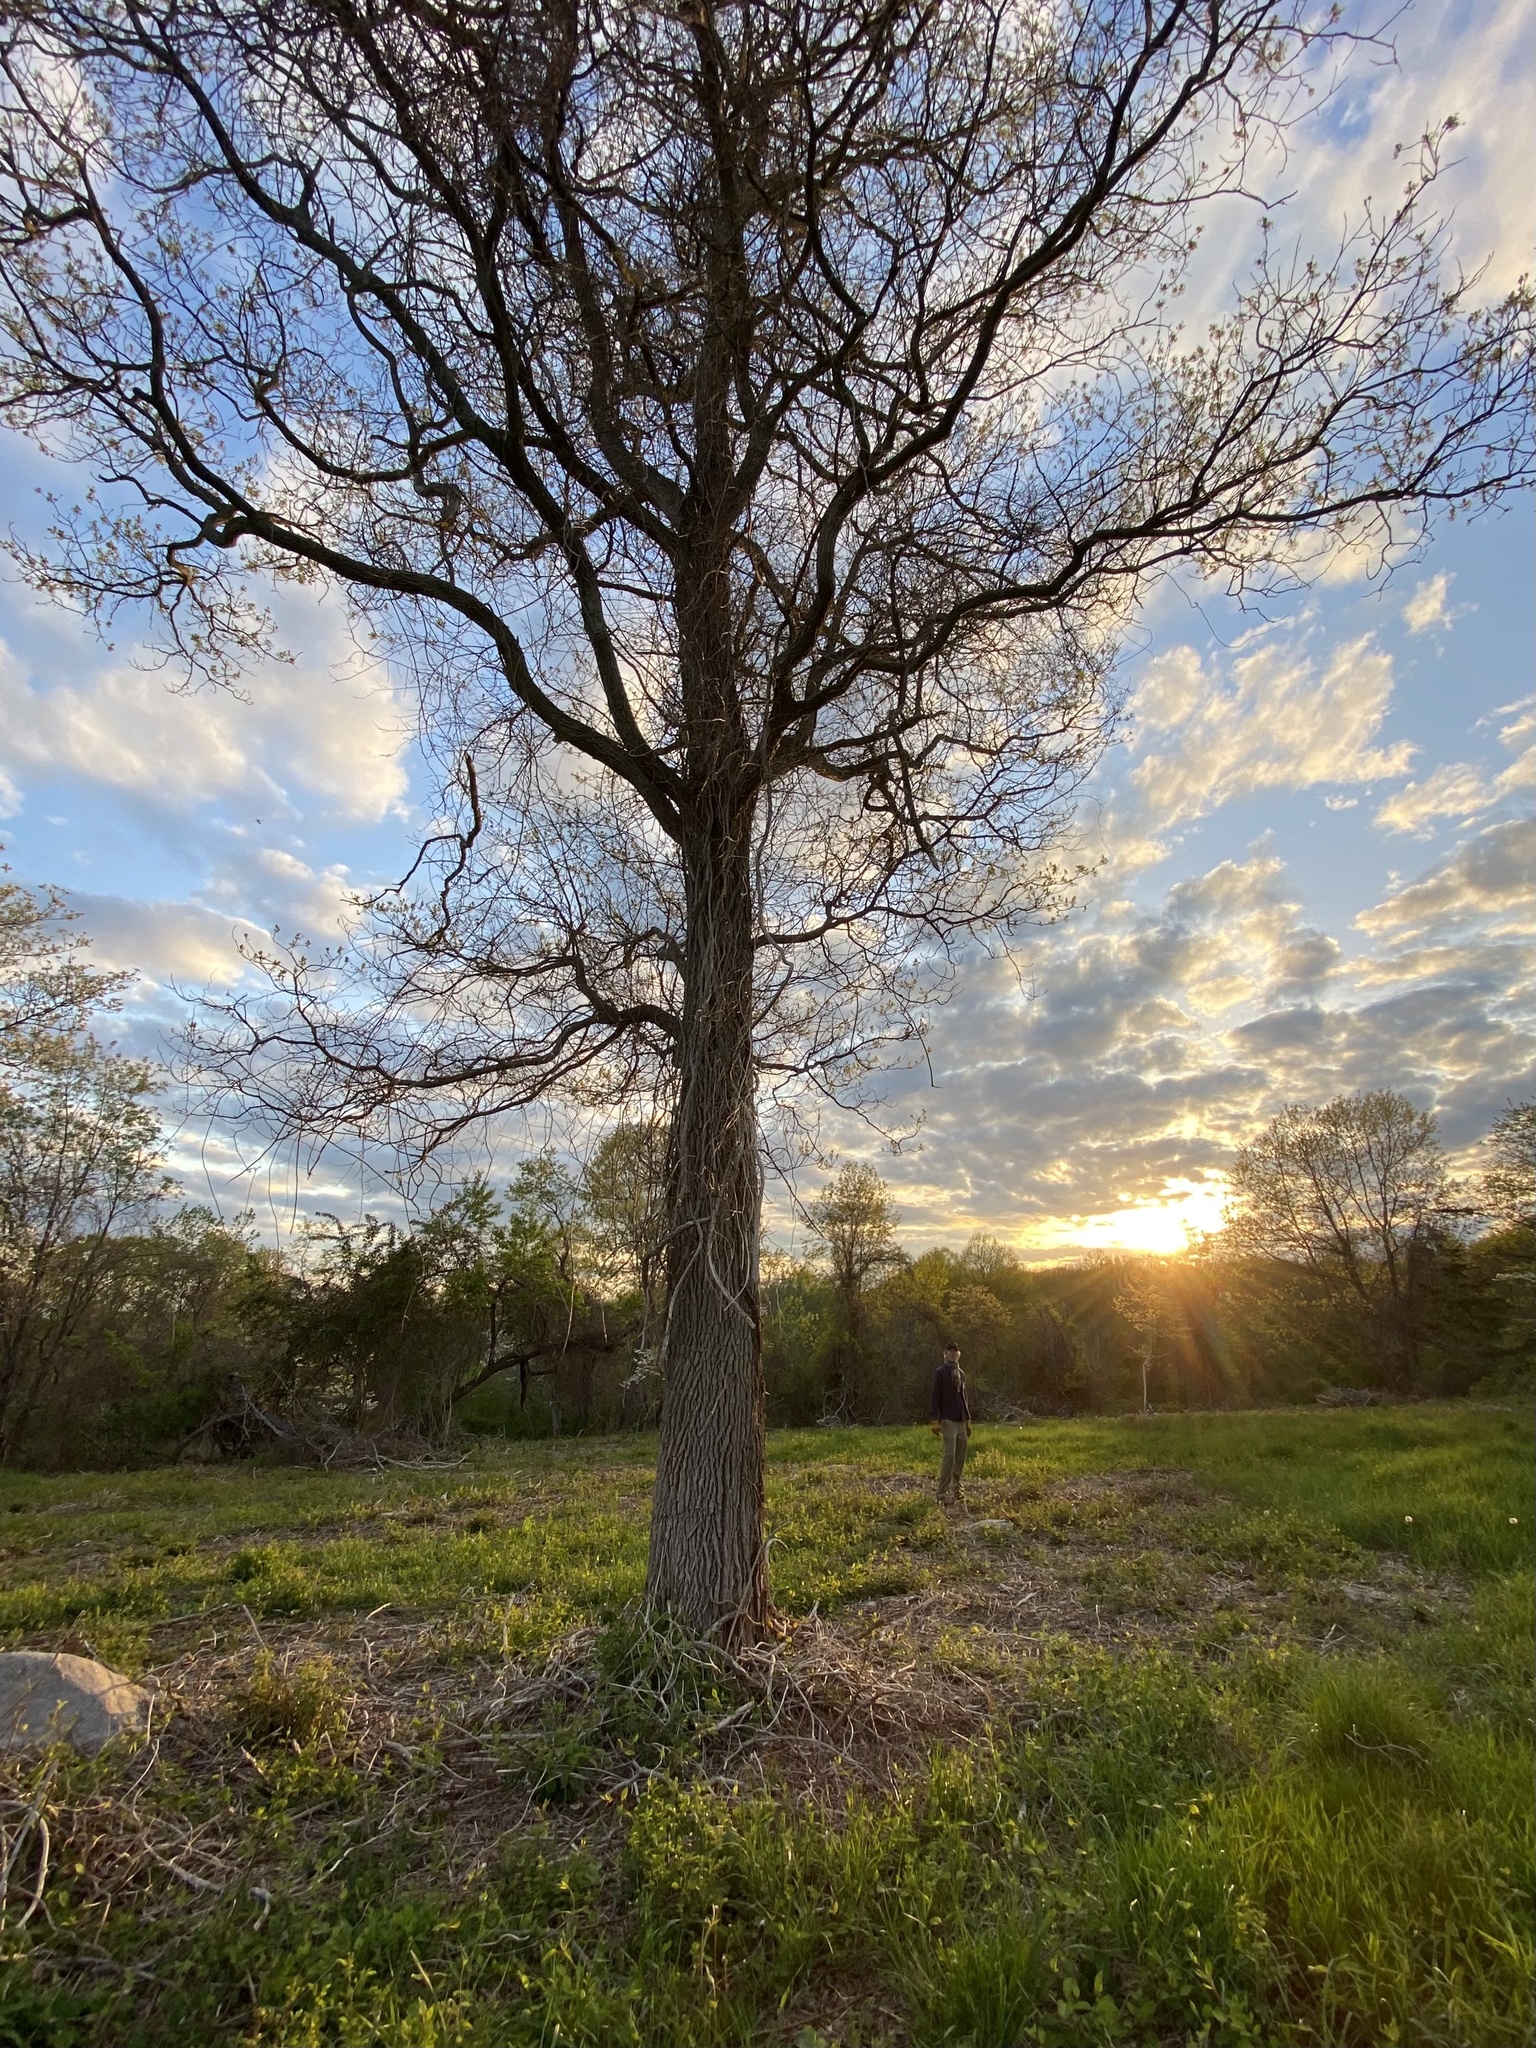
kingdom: Plantae
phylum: Tracheophyta
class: Magnoliopsida
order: Laurales
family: Lauraceae
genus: Sassafras
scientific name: Sassafras albidum
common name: Sassafras
